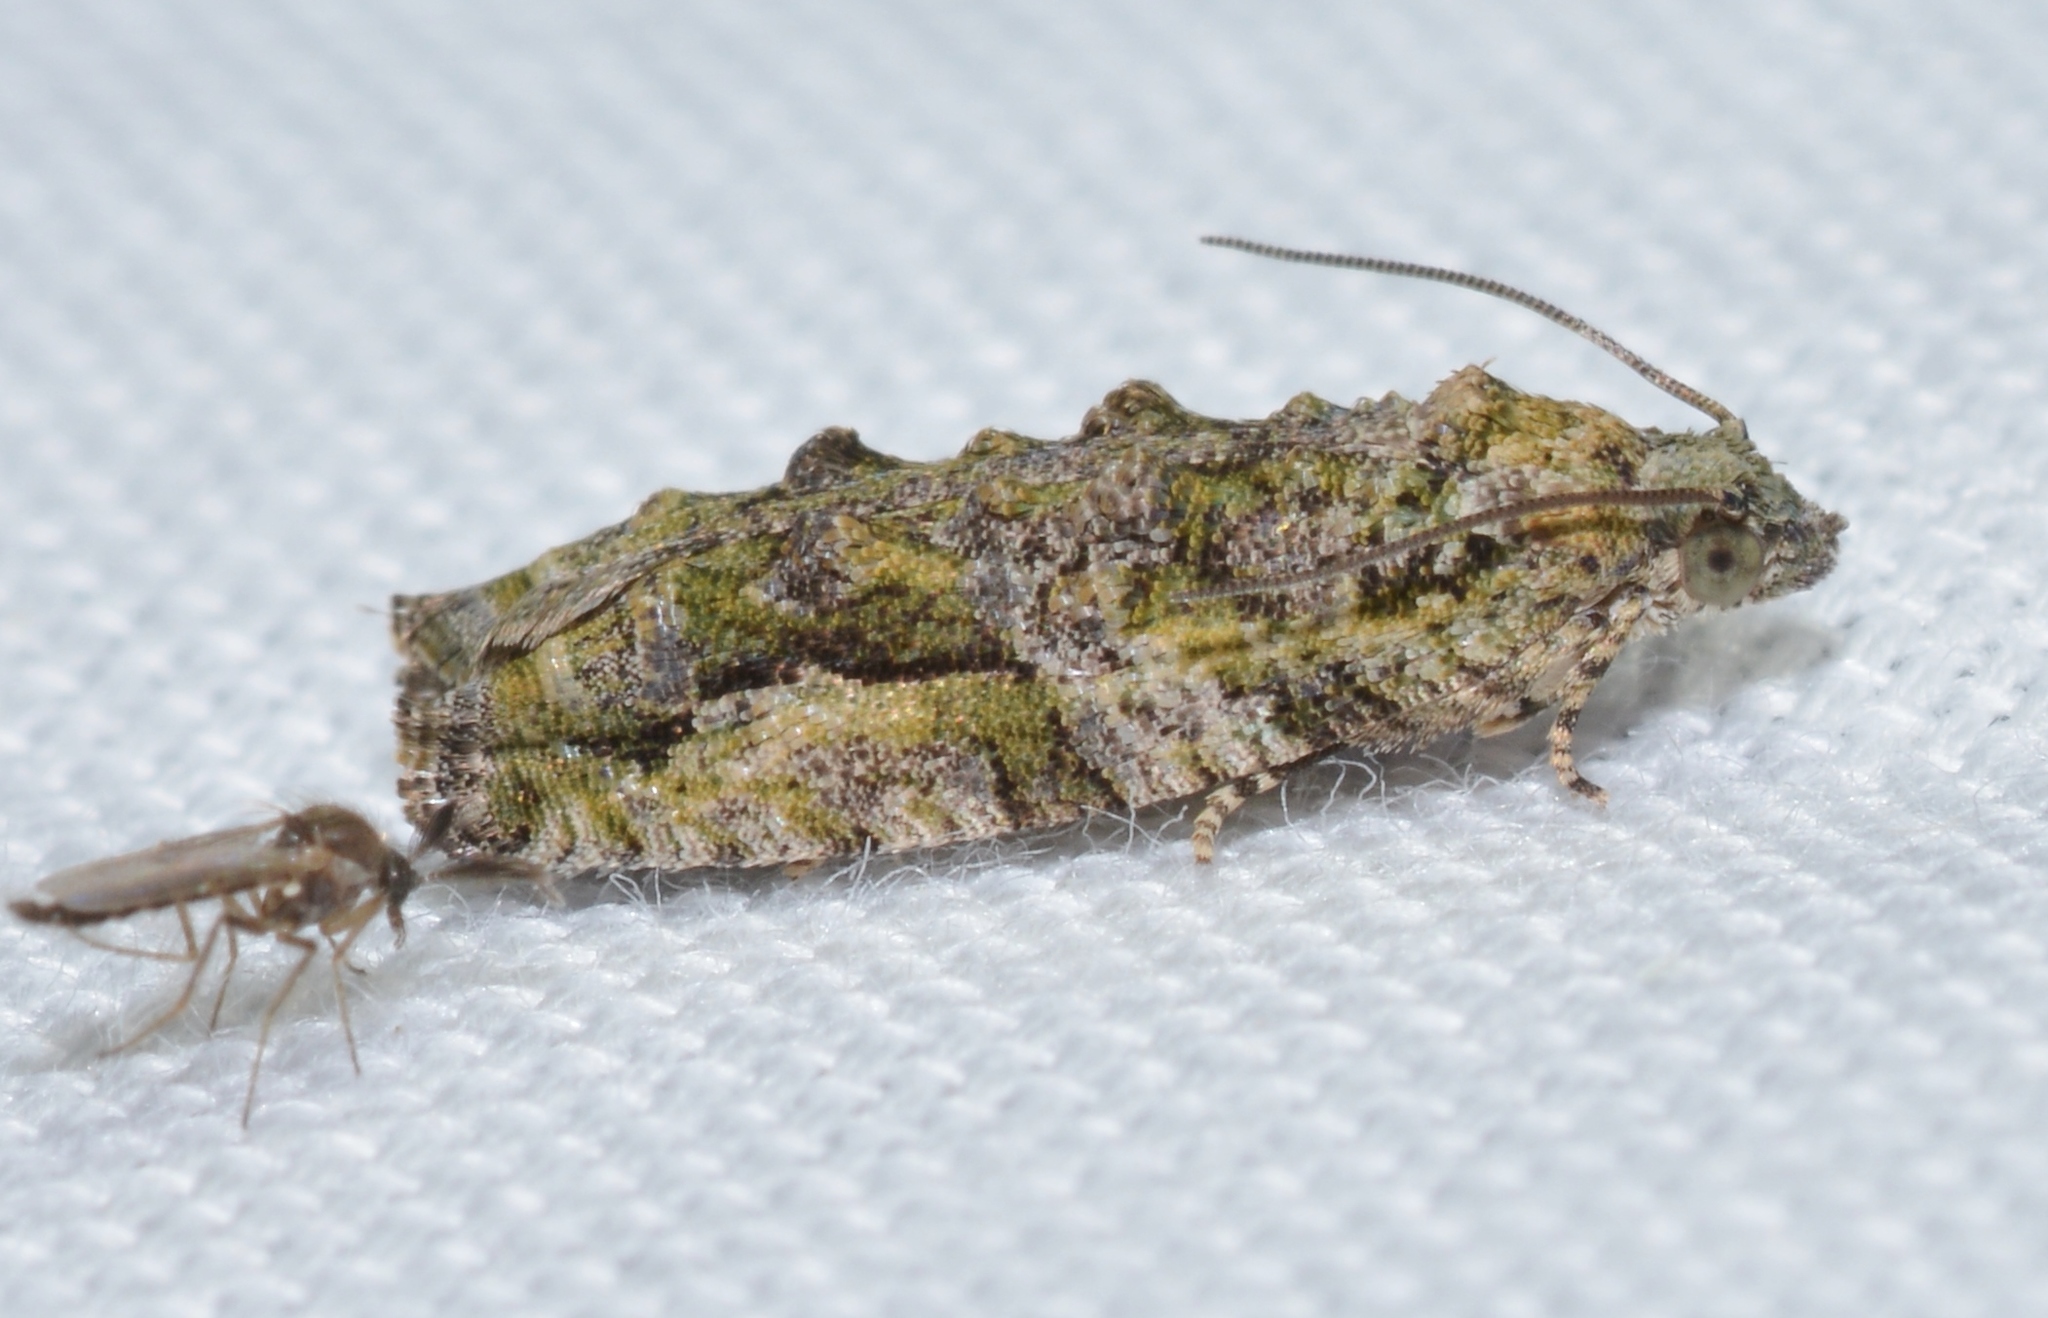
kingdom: Animalia
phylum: Arthropoda
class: Insecta
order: Lepidoptera
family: Tortricidae
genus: Proteoteras
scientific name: Proteoteras aesculana
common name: Maple twig borer moth
